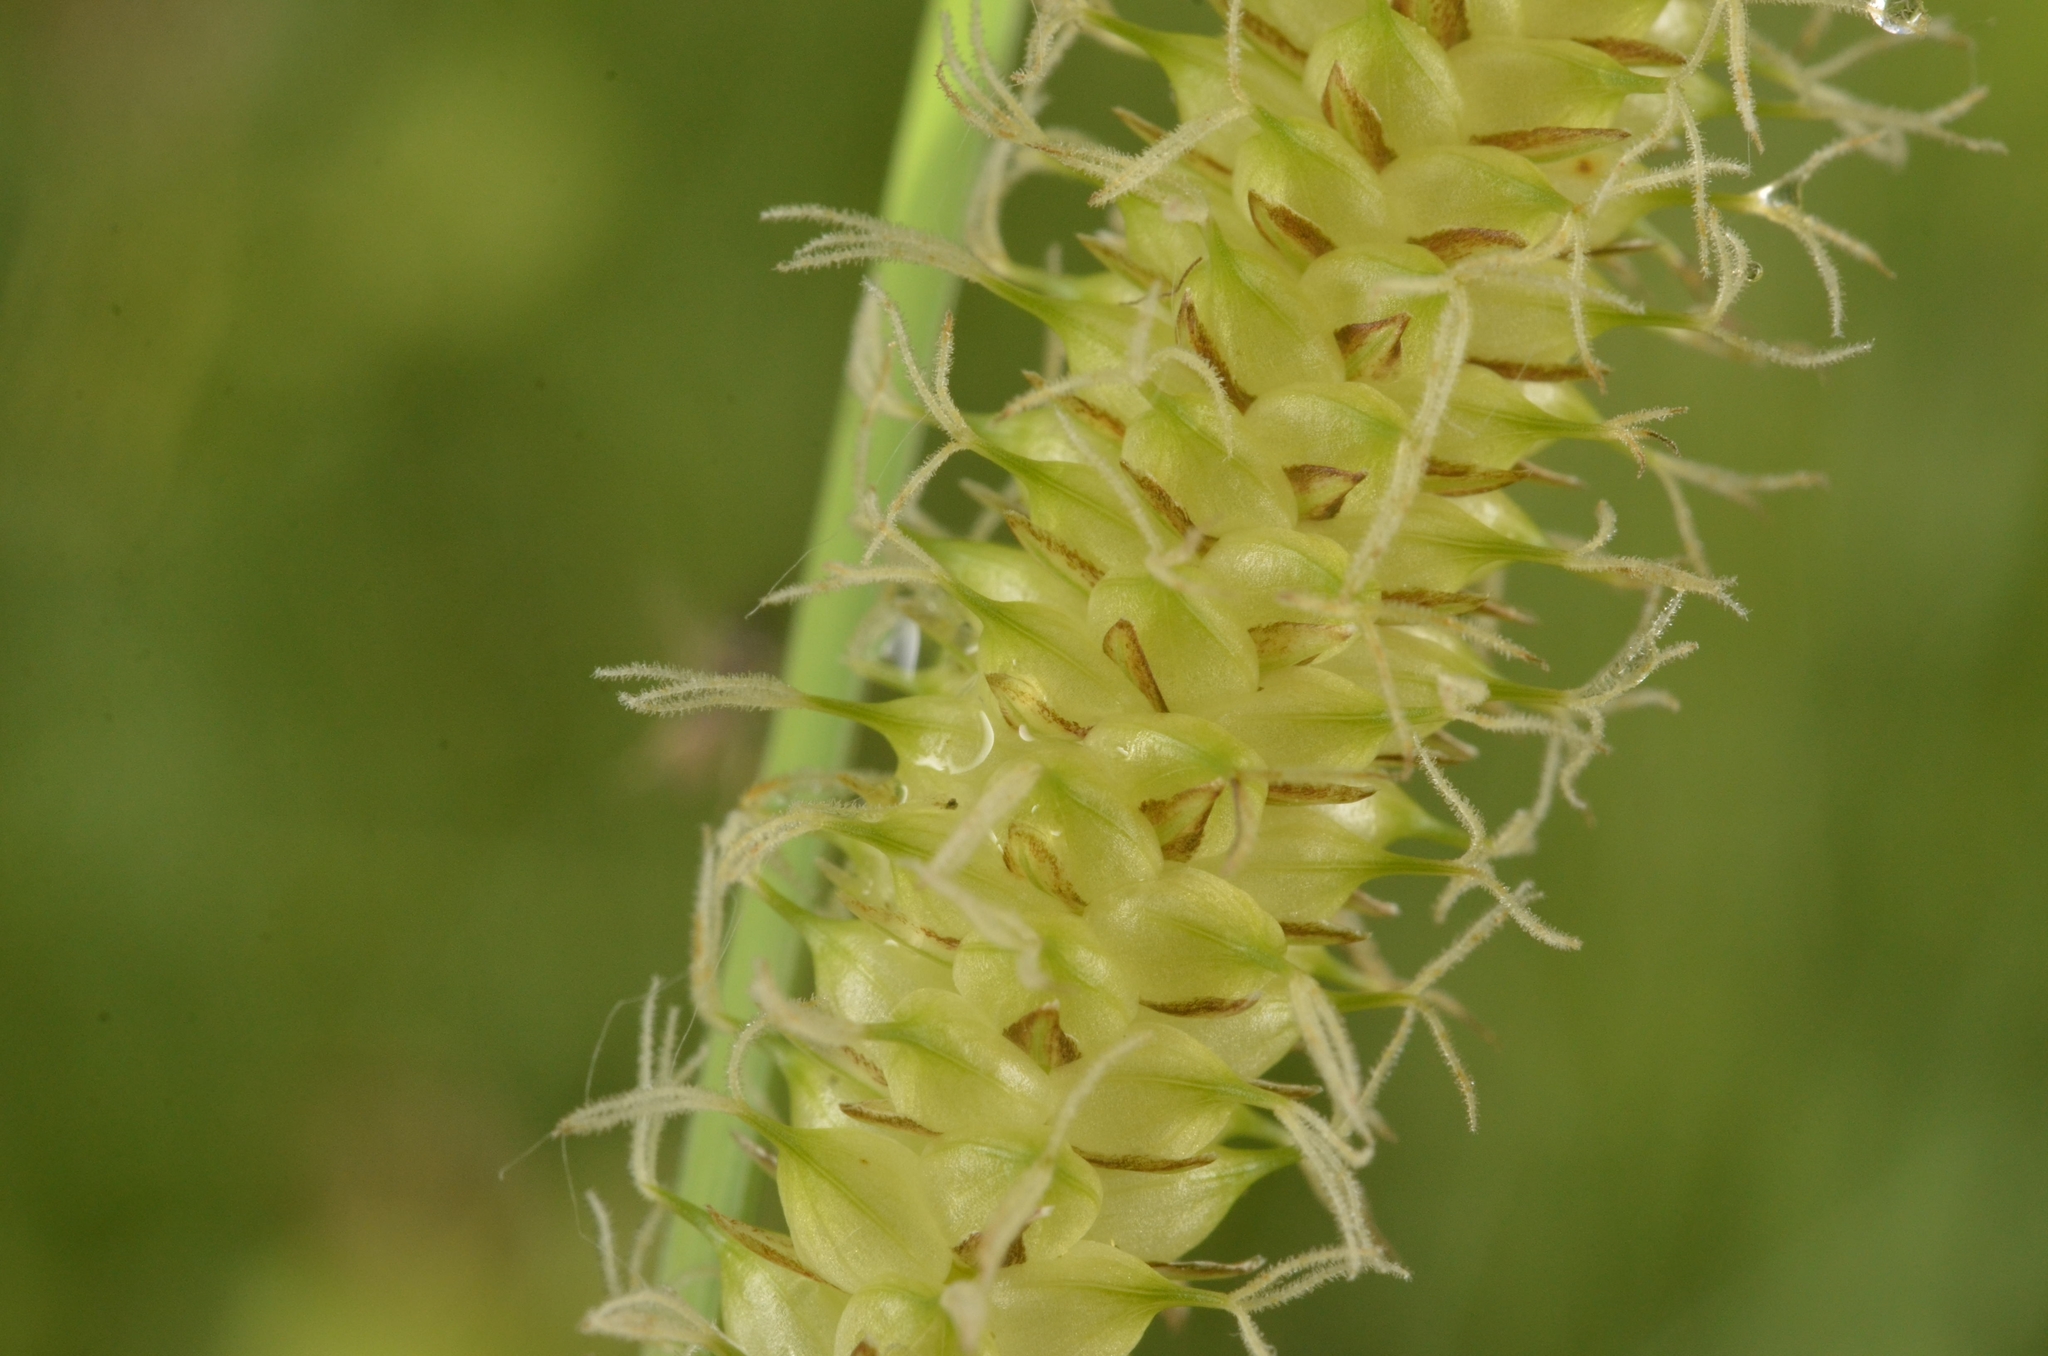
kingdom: Plantae
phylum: Tracheophyta
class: Liliopsida
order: Poales
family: Cyperaceae
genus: Carex
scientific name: Carex rostrata
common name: Bottle sedge
